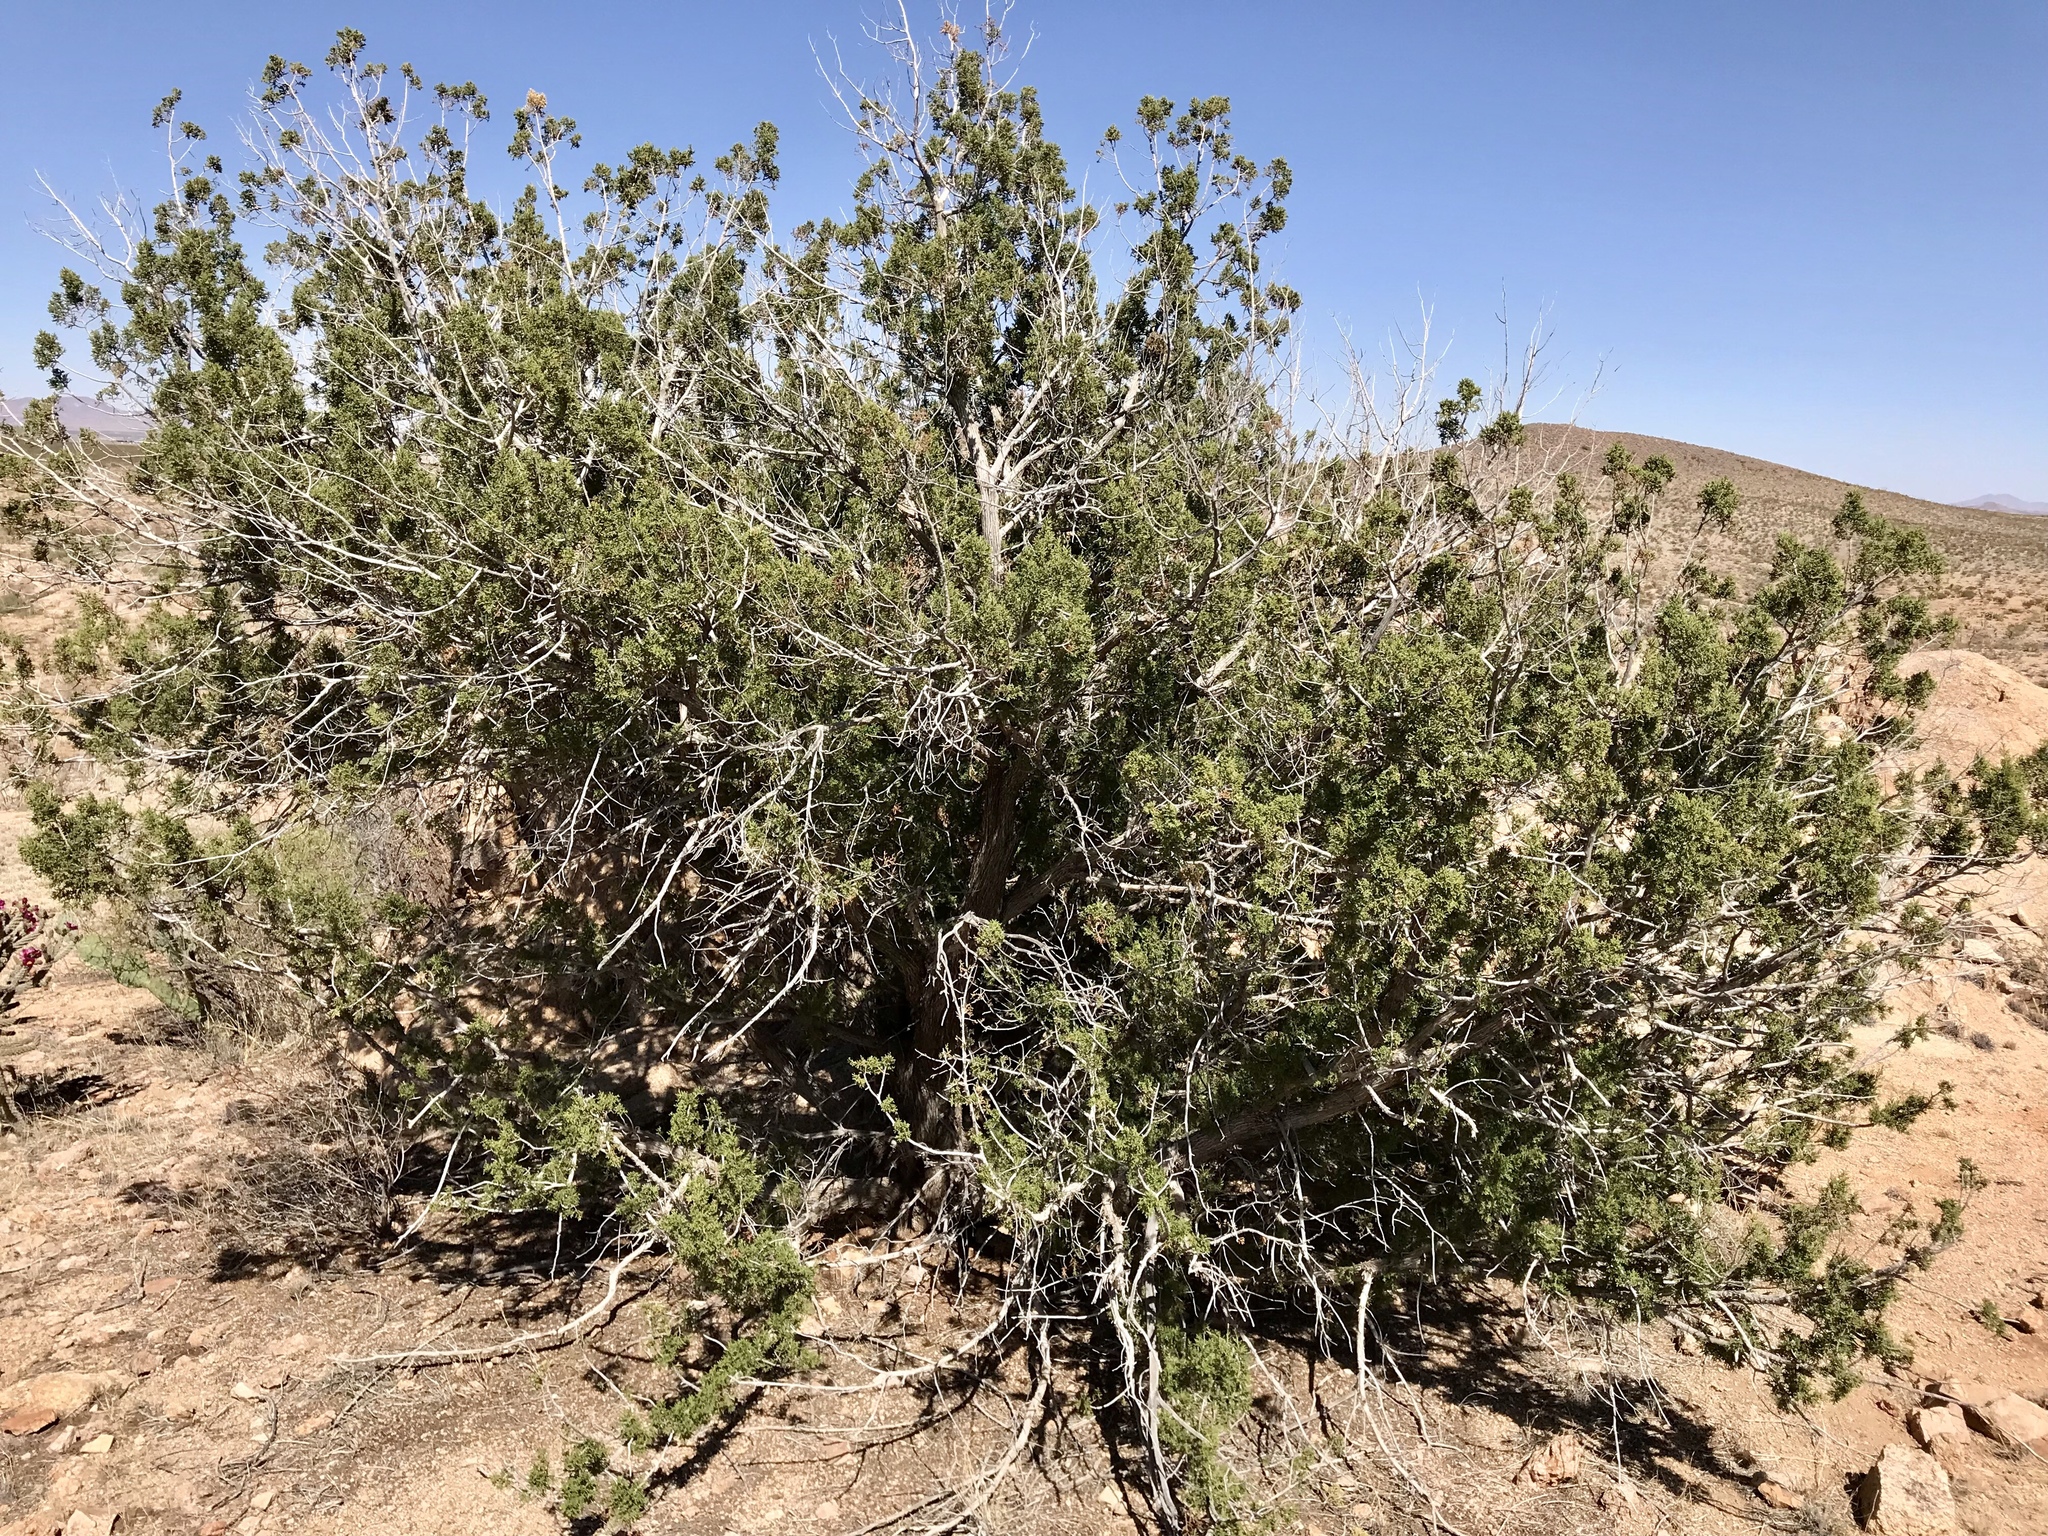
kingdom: Plantae
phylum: Tracheophyta
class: Pinopsida
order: Pinales
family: Cupressaceae
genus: Juniperus
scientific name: Juniperus deppeana
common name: Alligator juniper
